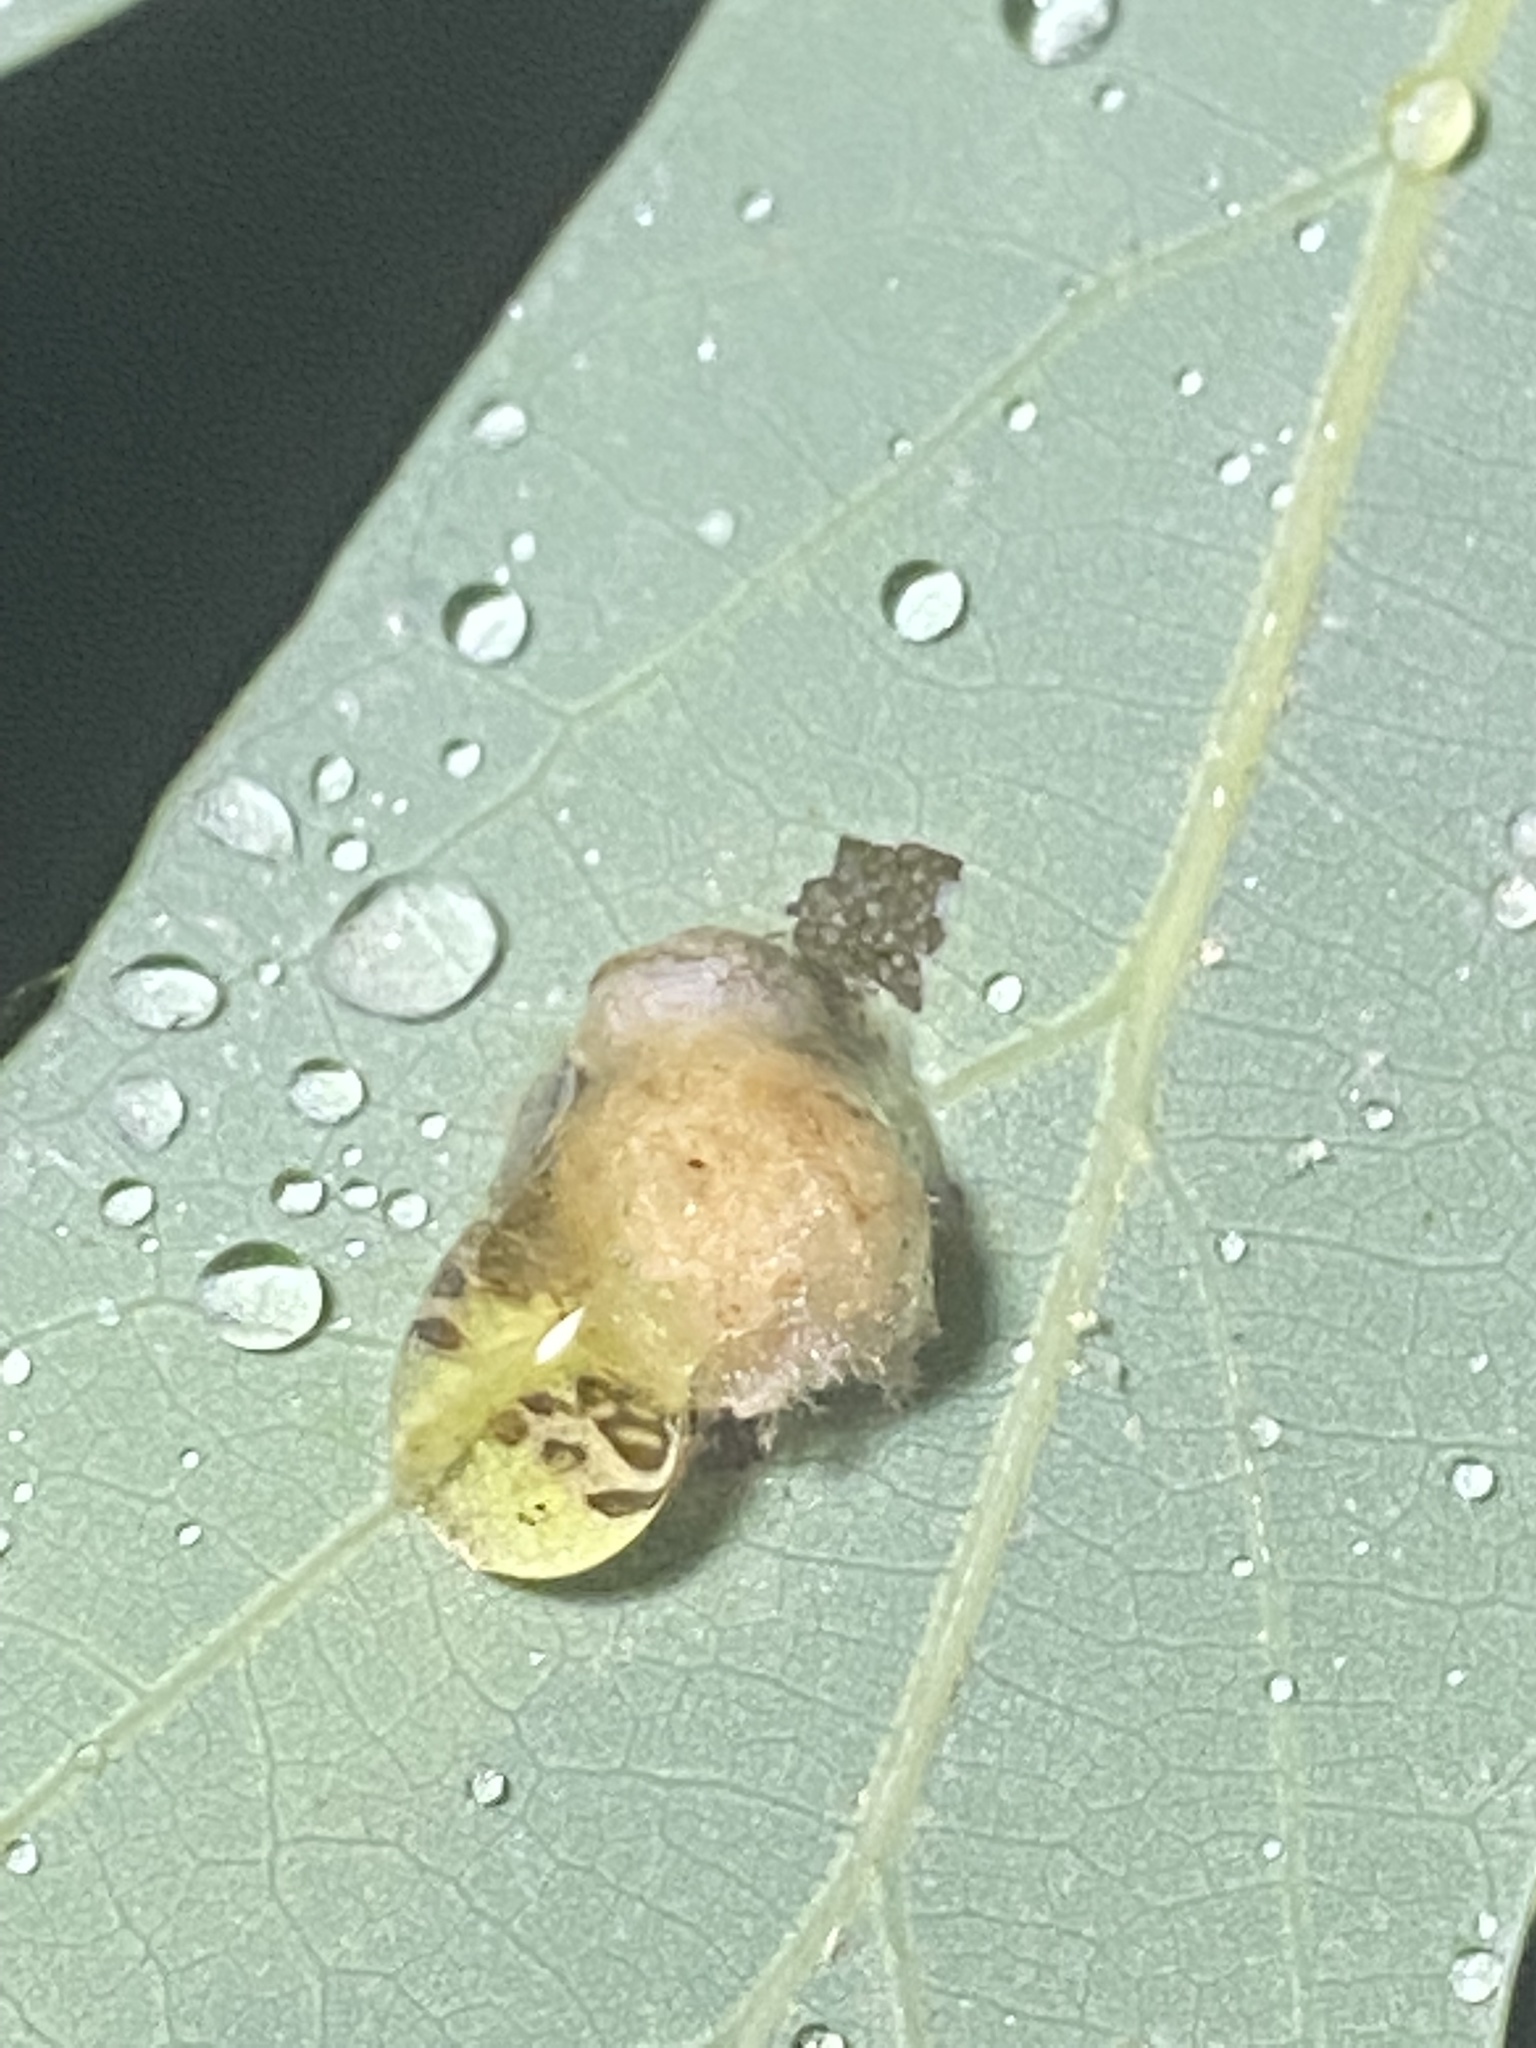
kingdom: Animalia
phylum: Arthropoda
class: Insecta
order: Hymenoptera
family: Cynipidae
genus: Philonix
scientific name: Philonix fulvicollis
